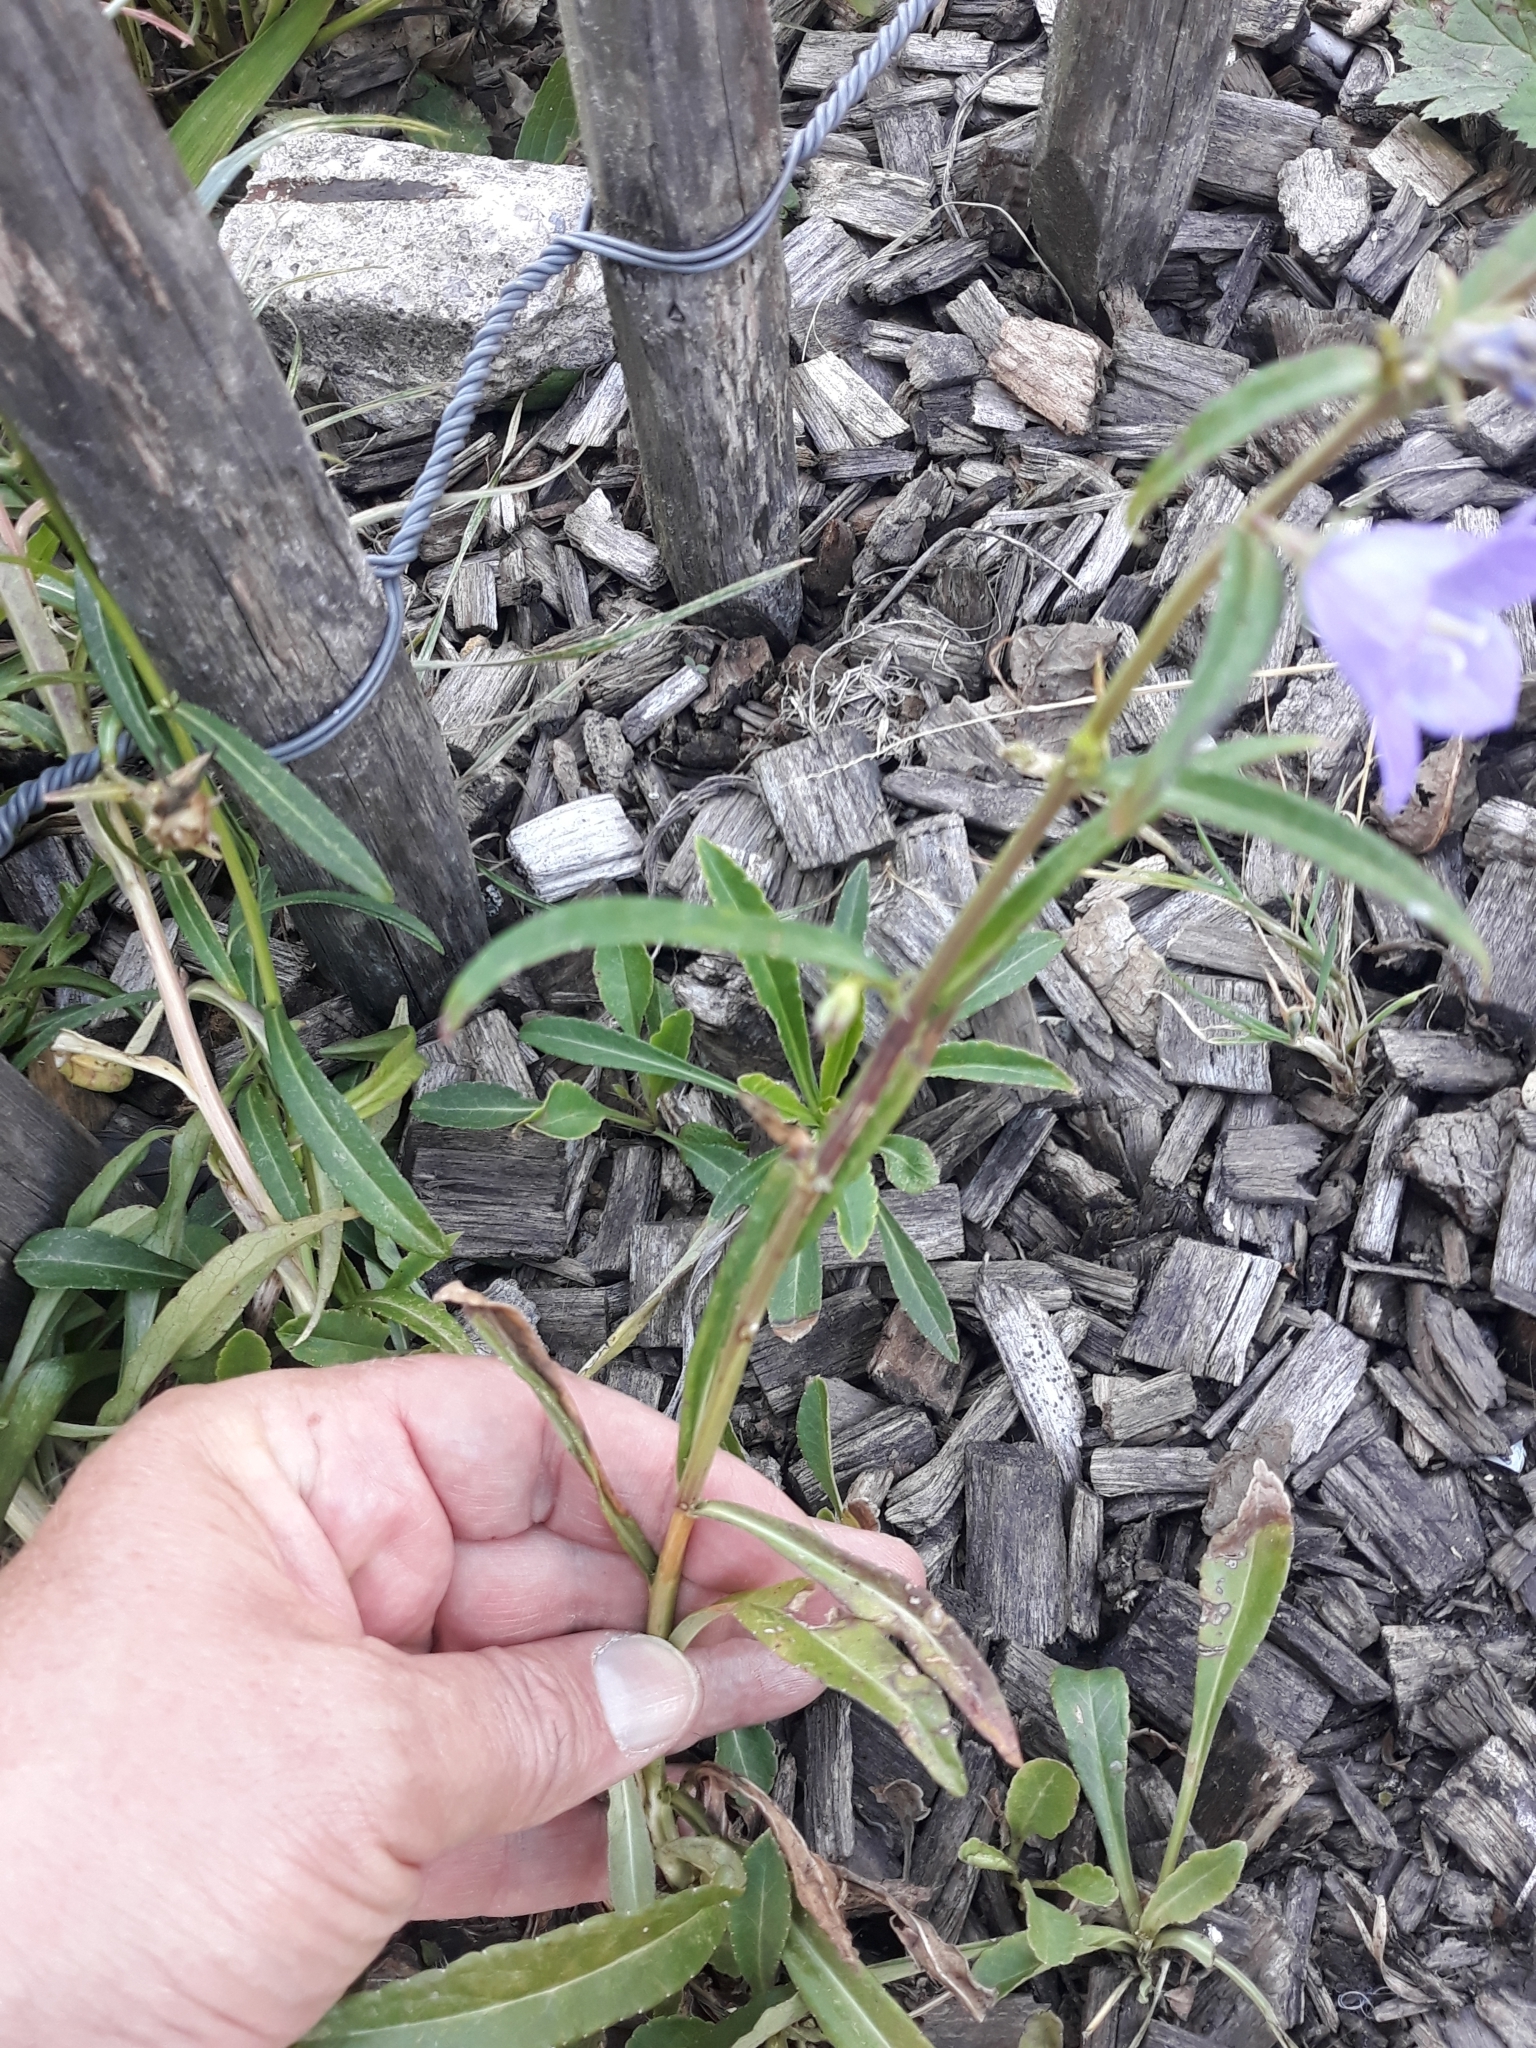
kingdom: Plantae
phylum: Tracheophyta
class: Magnoliopsida
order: Asterales
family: Campanulaceae
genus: Campanula
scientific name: Campanula persicifolia
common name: Peach-leaved bellflower
